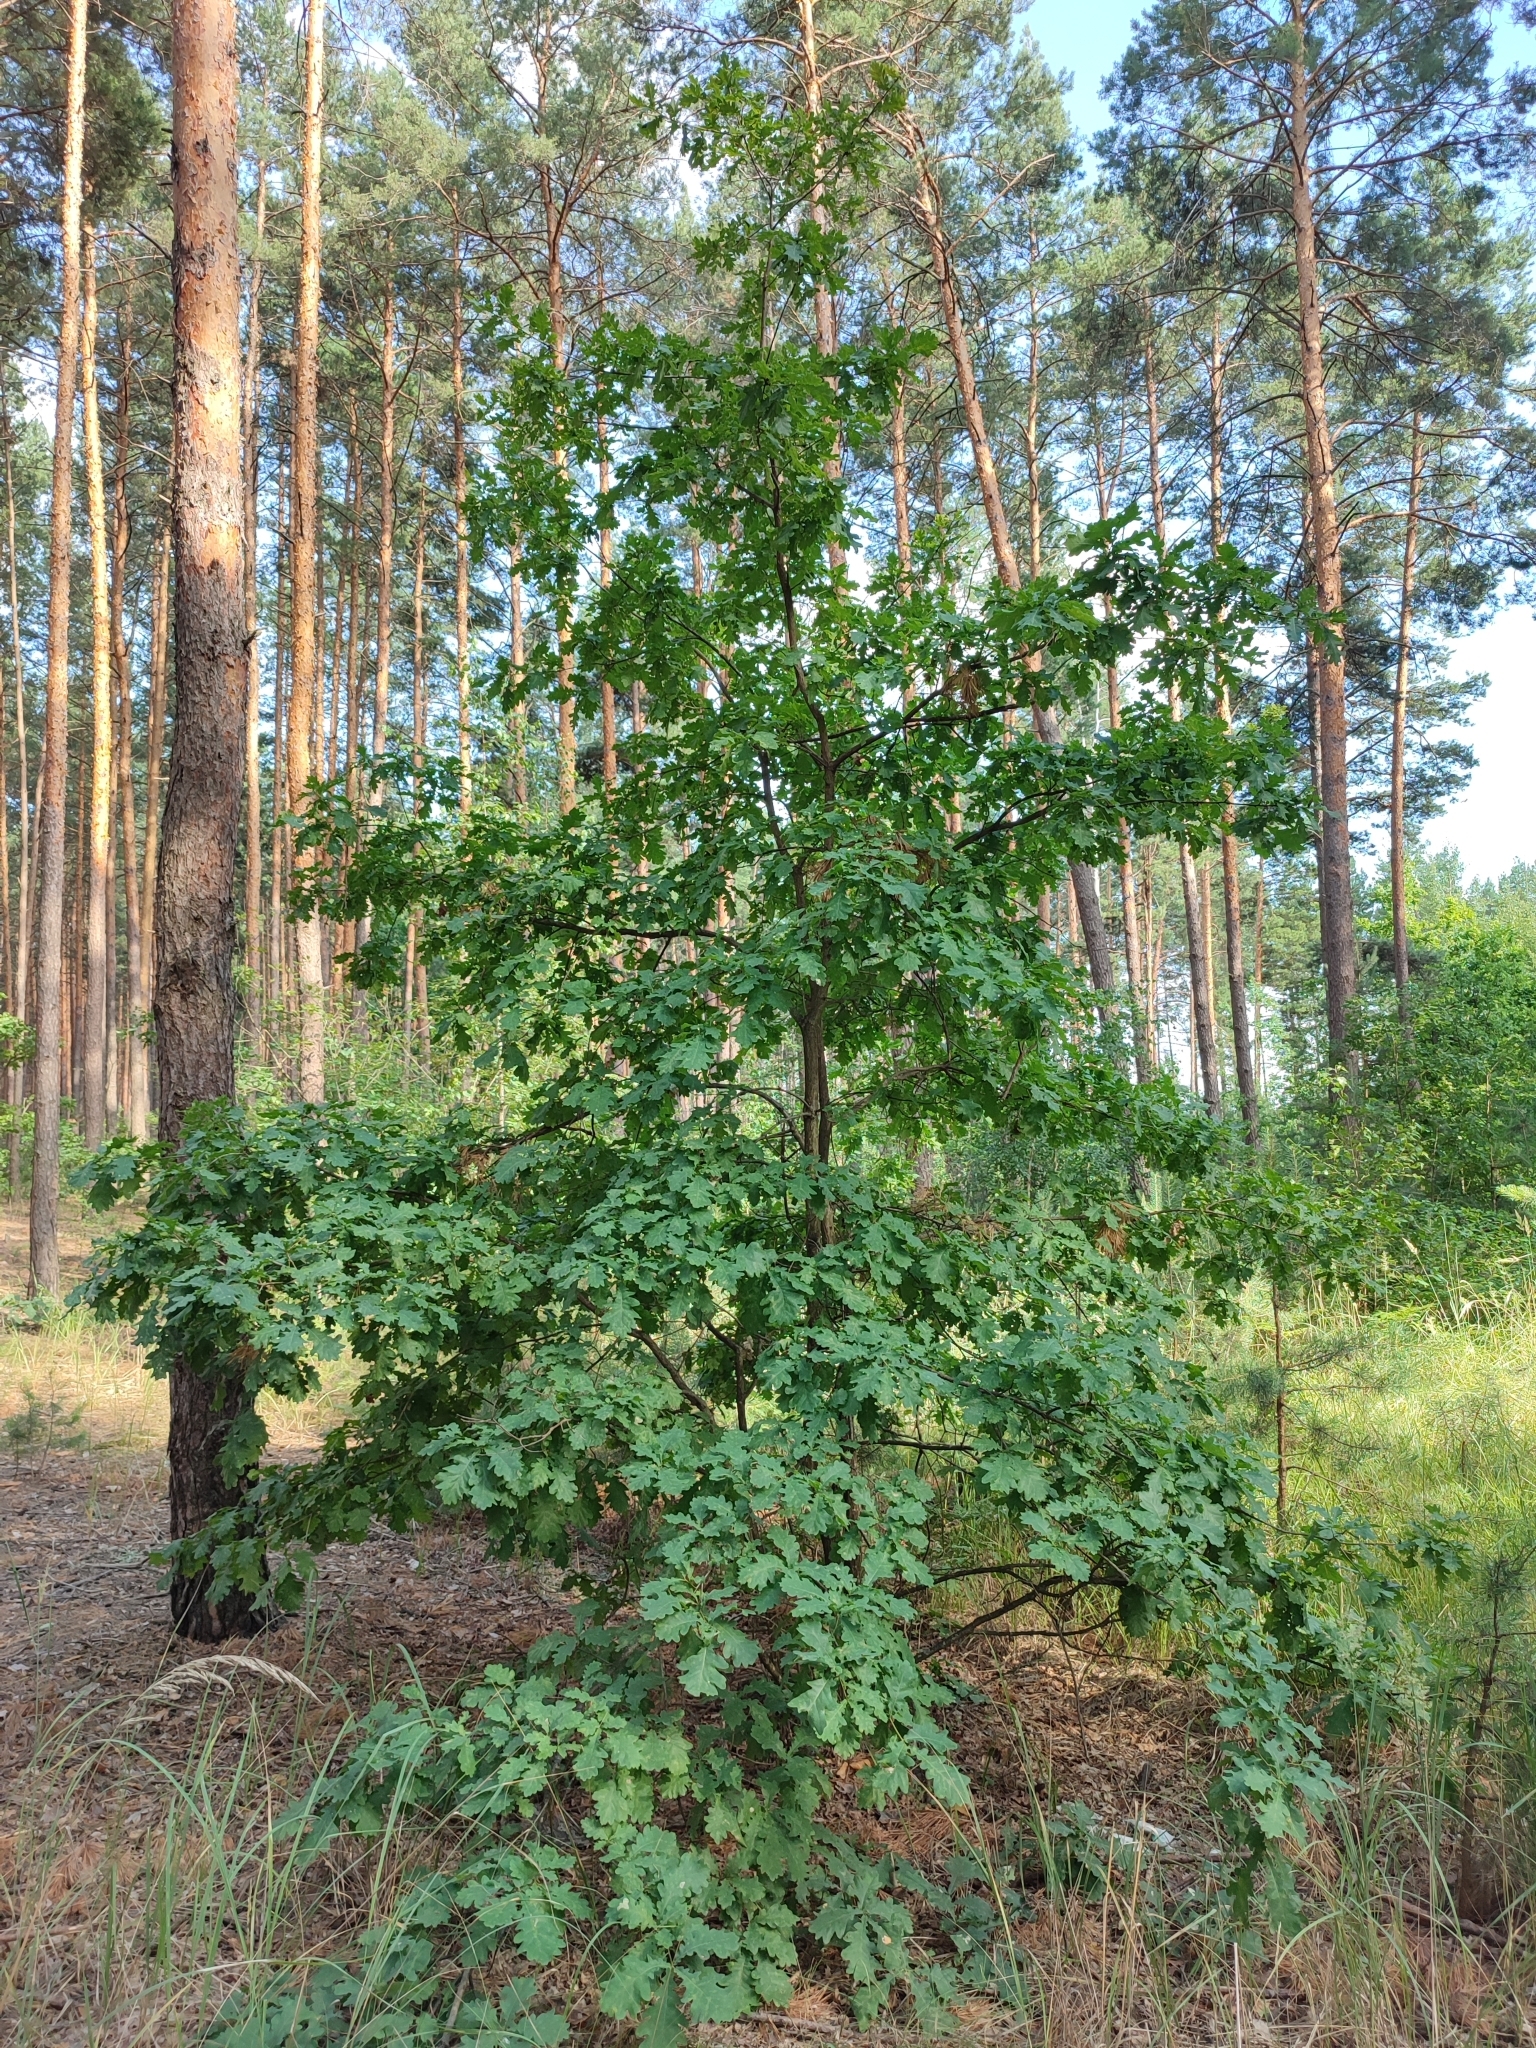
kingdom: Plantae
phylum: Tracheophyta
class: Magnoliopsida
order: Fagales
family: Fagaceae
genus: Quercus
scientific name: Quercus robur
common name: Pedunculate oak
